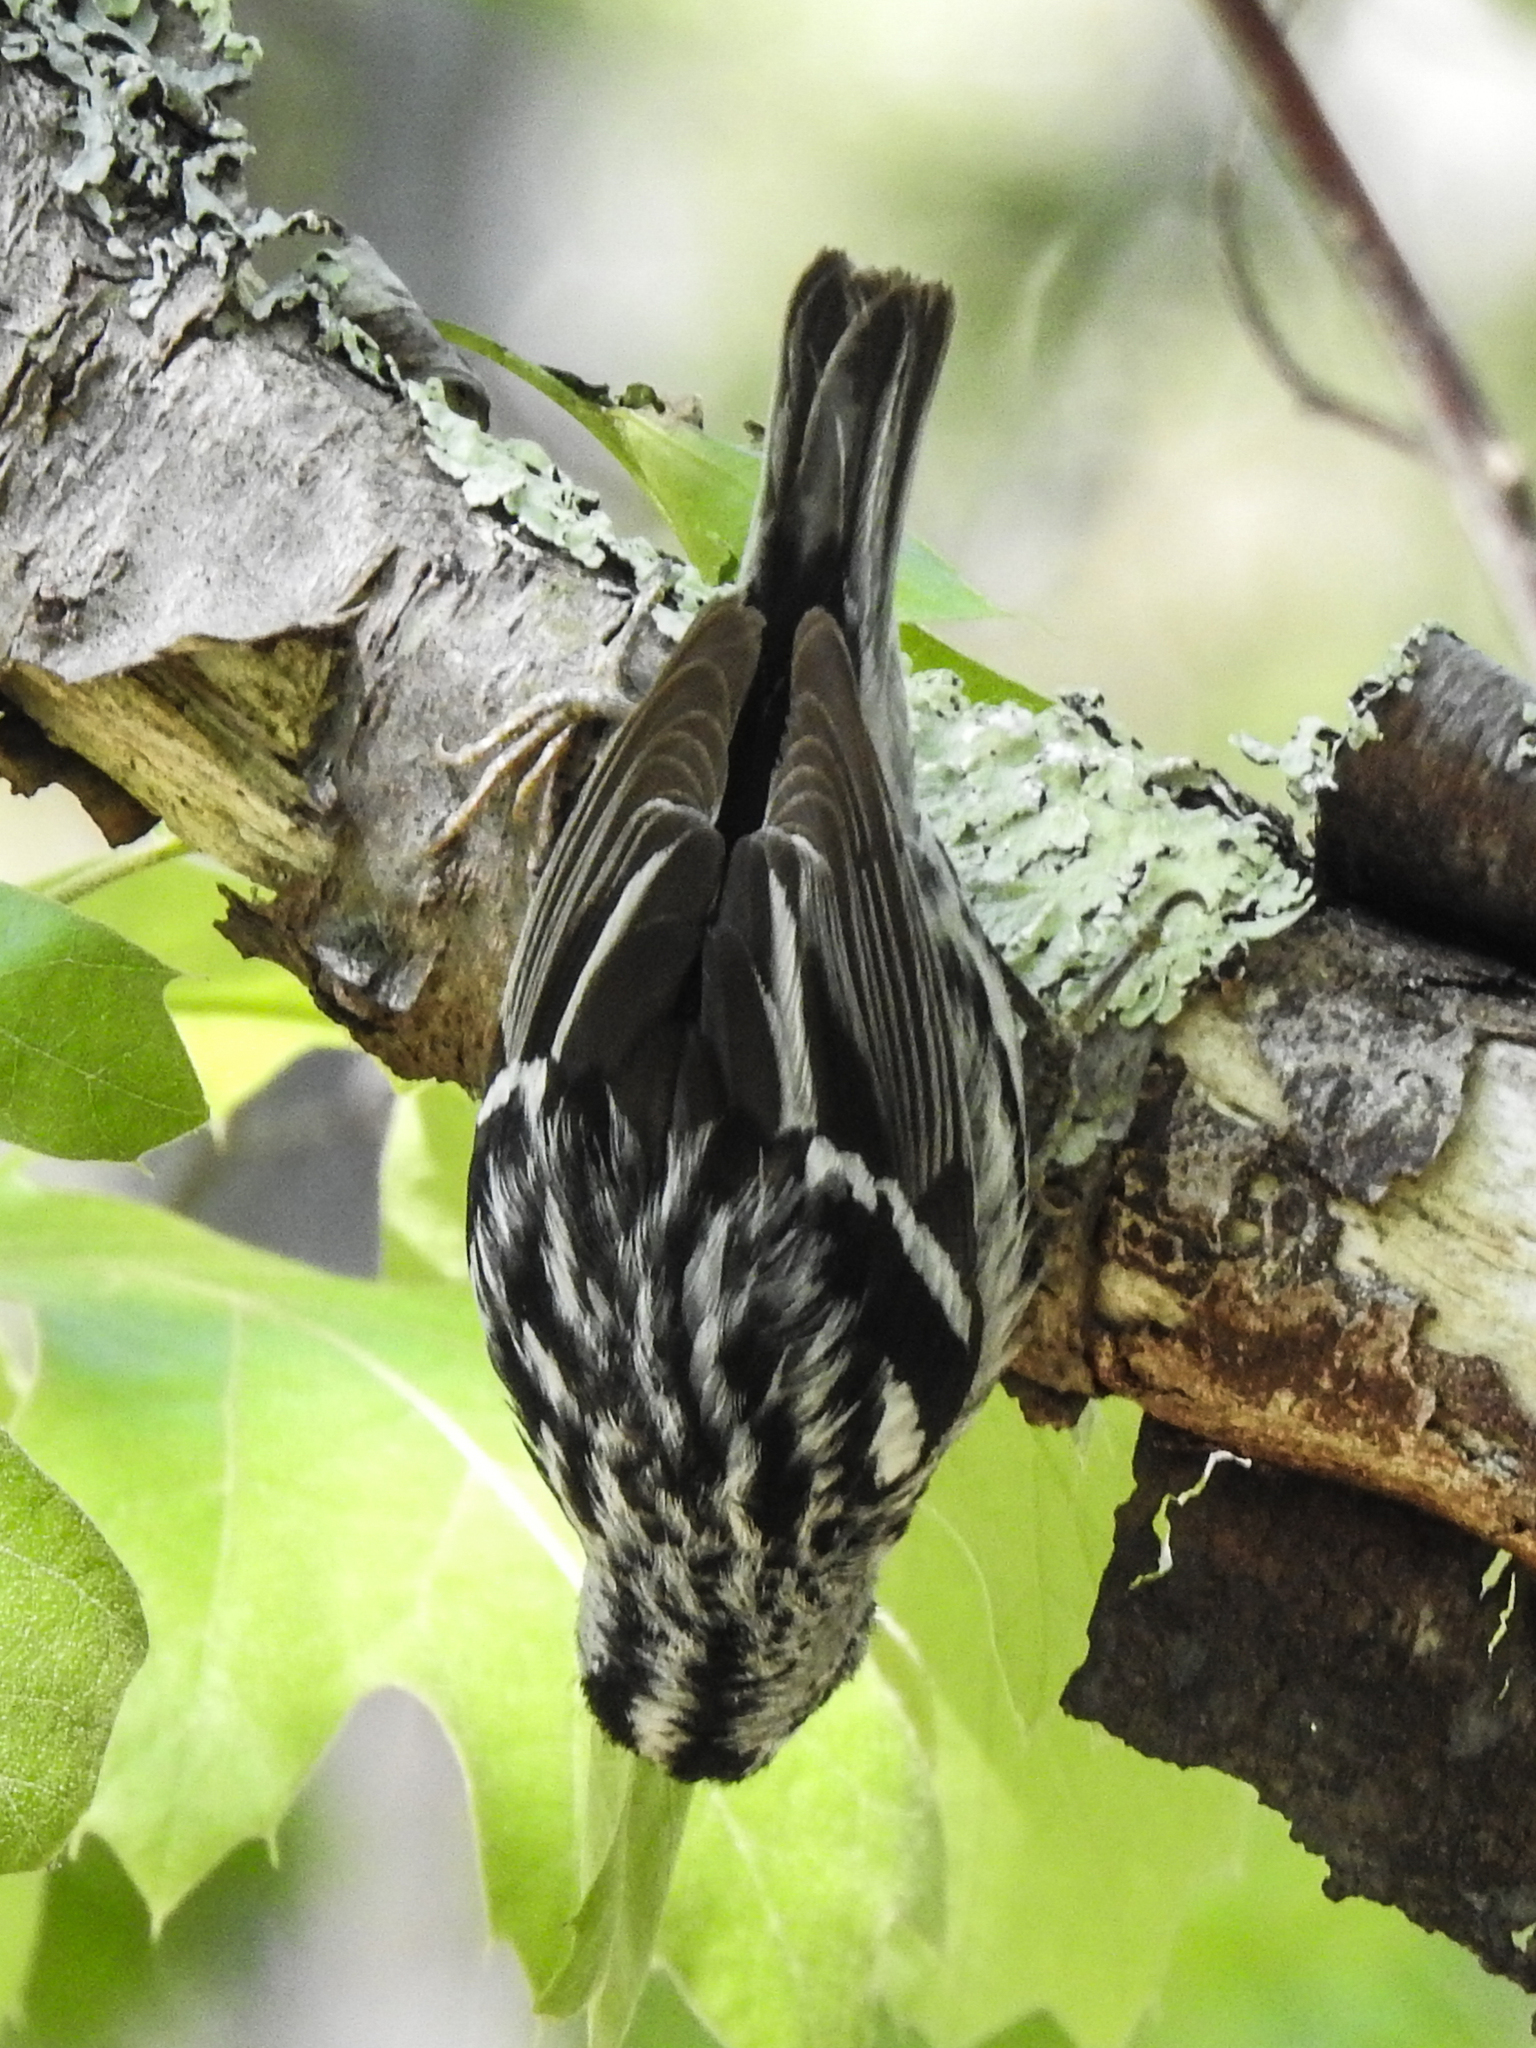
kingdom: Animalia
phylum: Chordata
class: Aves
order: Passeriformes
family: Parulidae
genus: Mniotilta
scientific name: Mniotilta varia
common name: Black-and-white warbler
